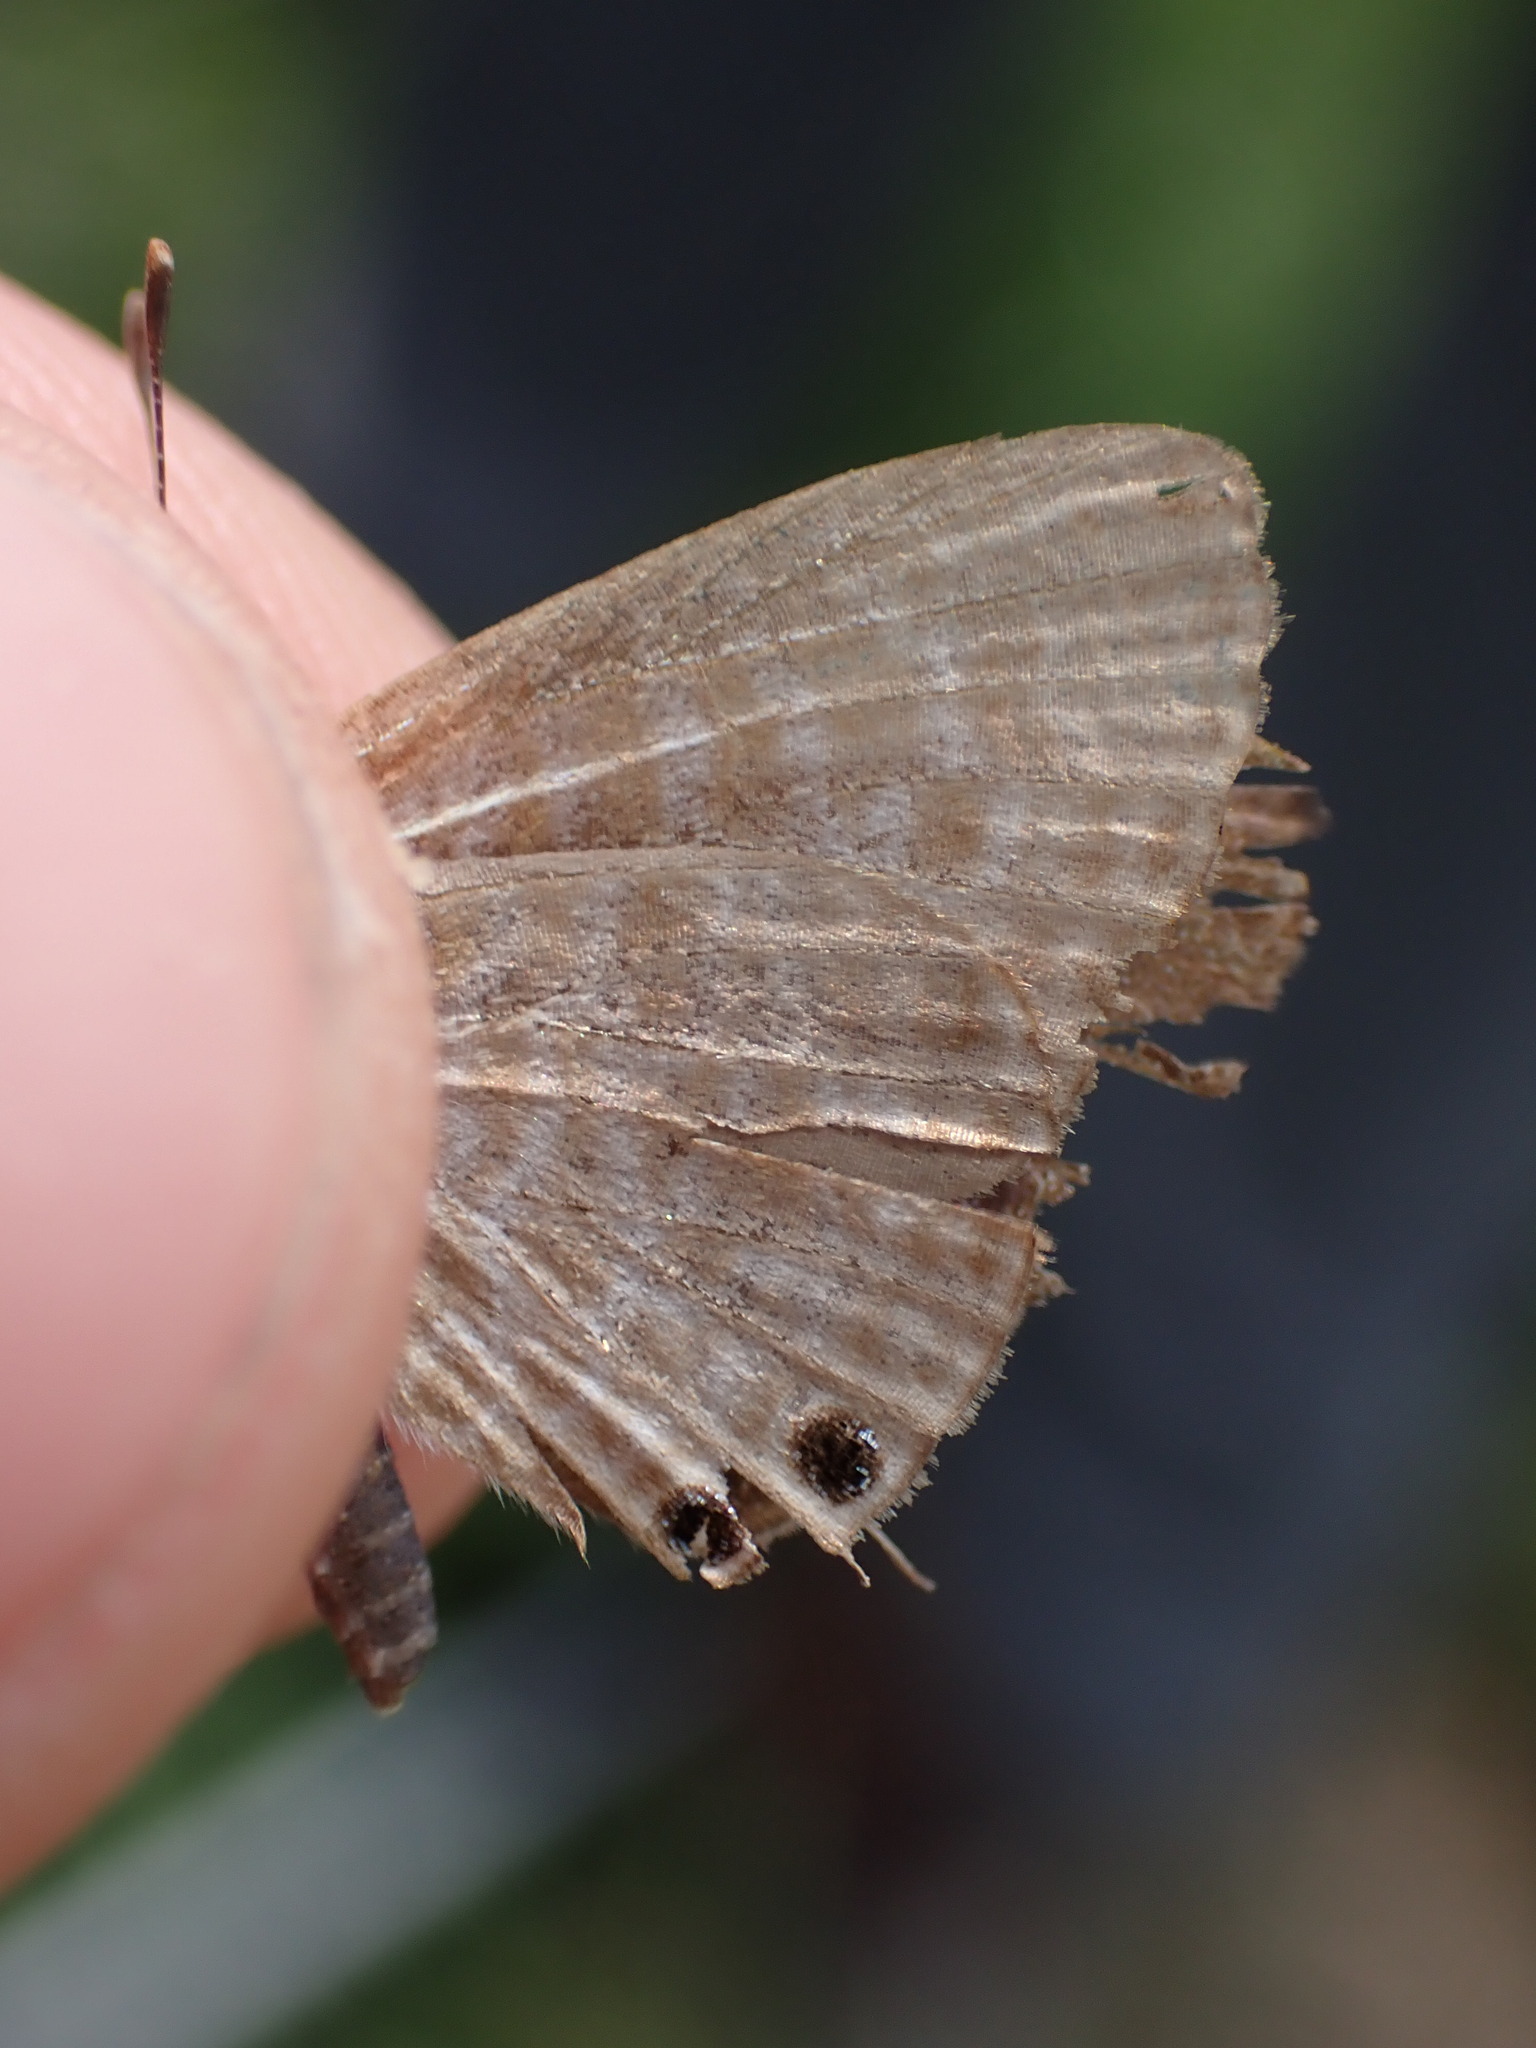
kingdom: Animalia
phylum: Arthropoda
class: Insecta
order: Lepidoptera
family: Lycaenidae
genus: Leptotes
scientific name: Leptotes pirithous
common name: Lang's short-tailed blue
